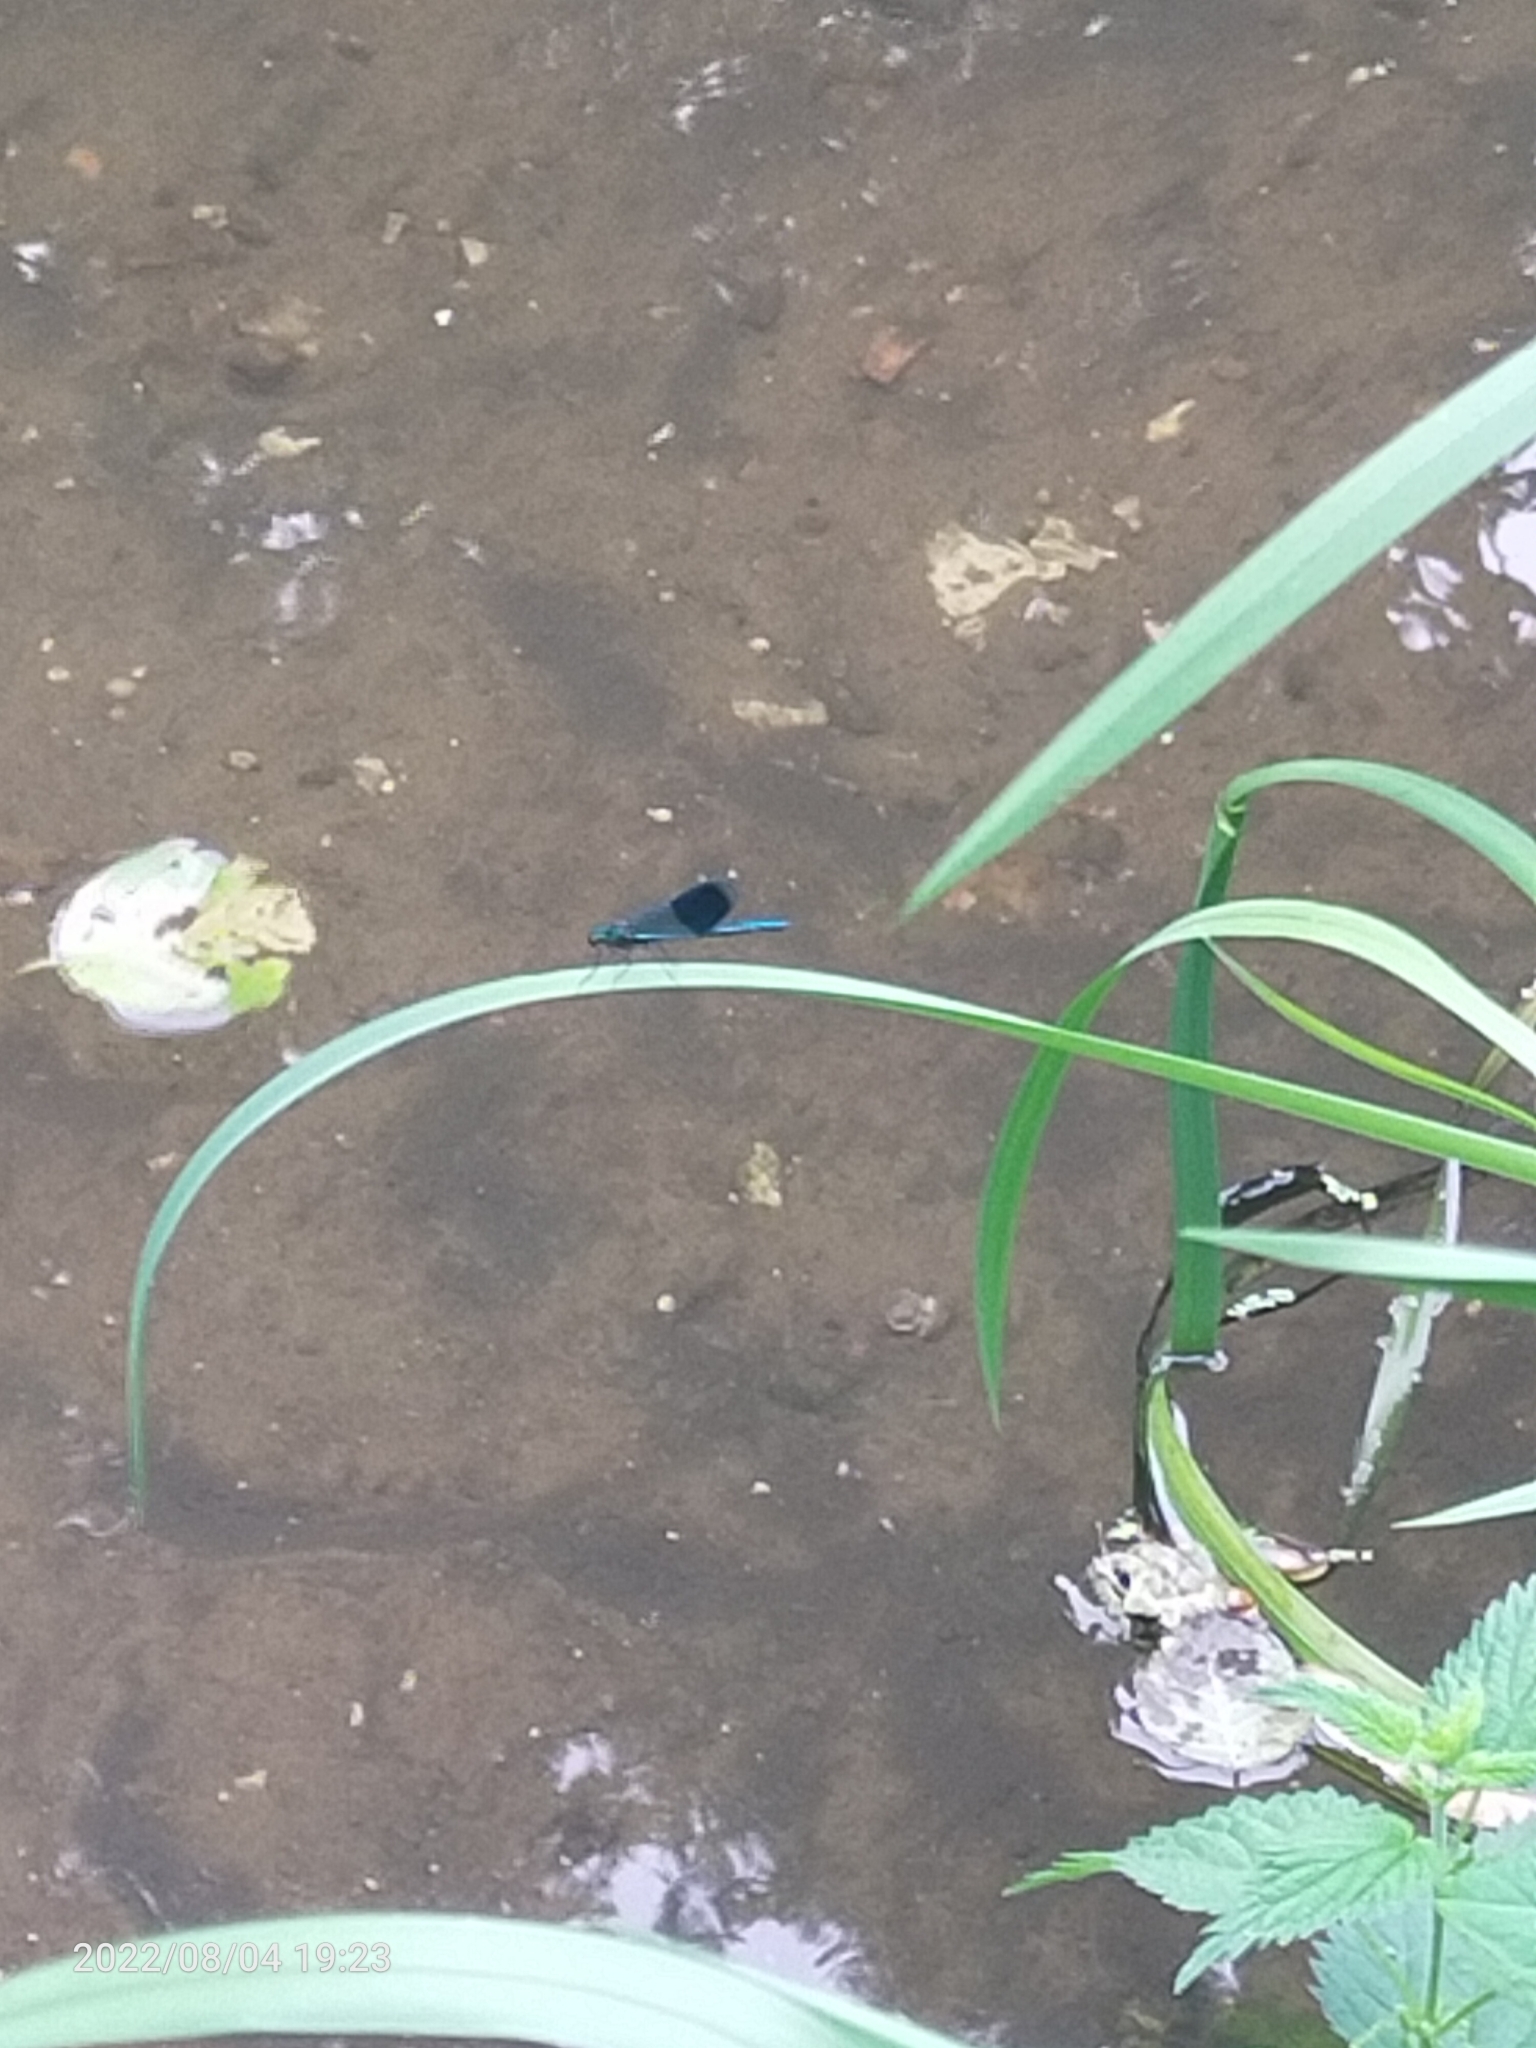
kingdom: Animalia
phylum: Arthropoda
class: Insecta
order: Odonata
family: Calopterygidae
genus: Calopteryx
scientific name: Calopteryx splendens
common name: Banded demoiselle
